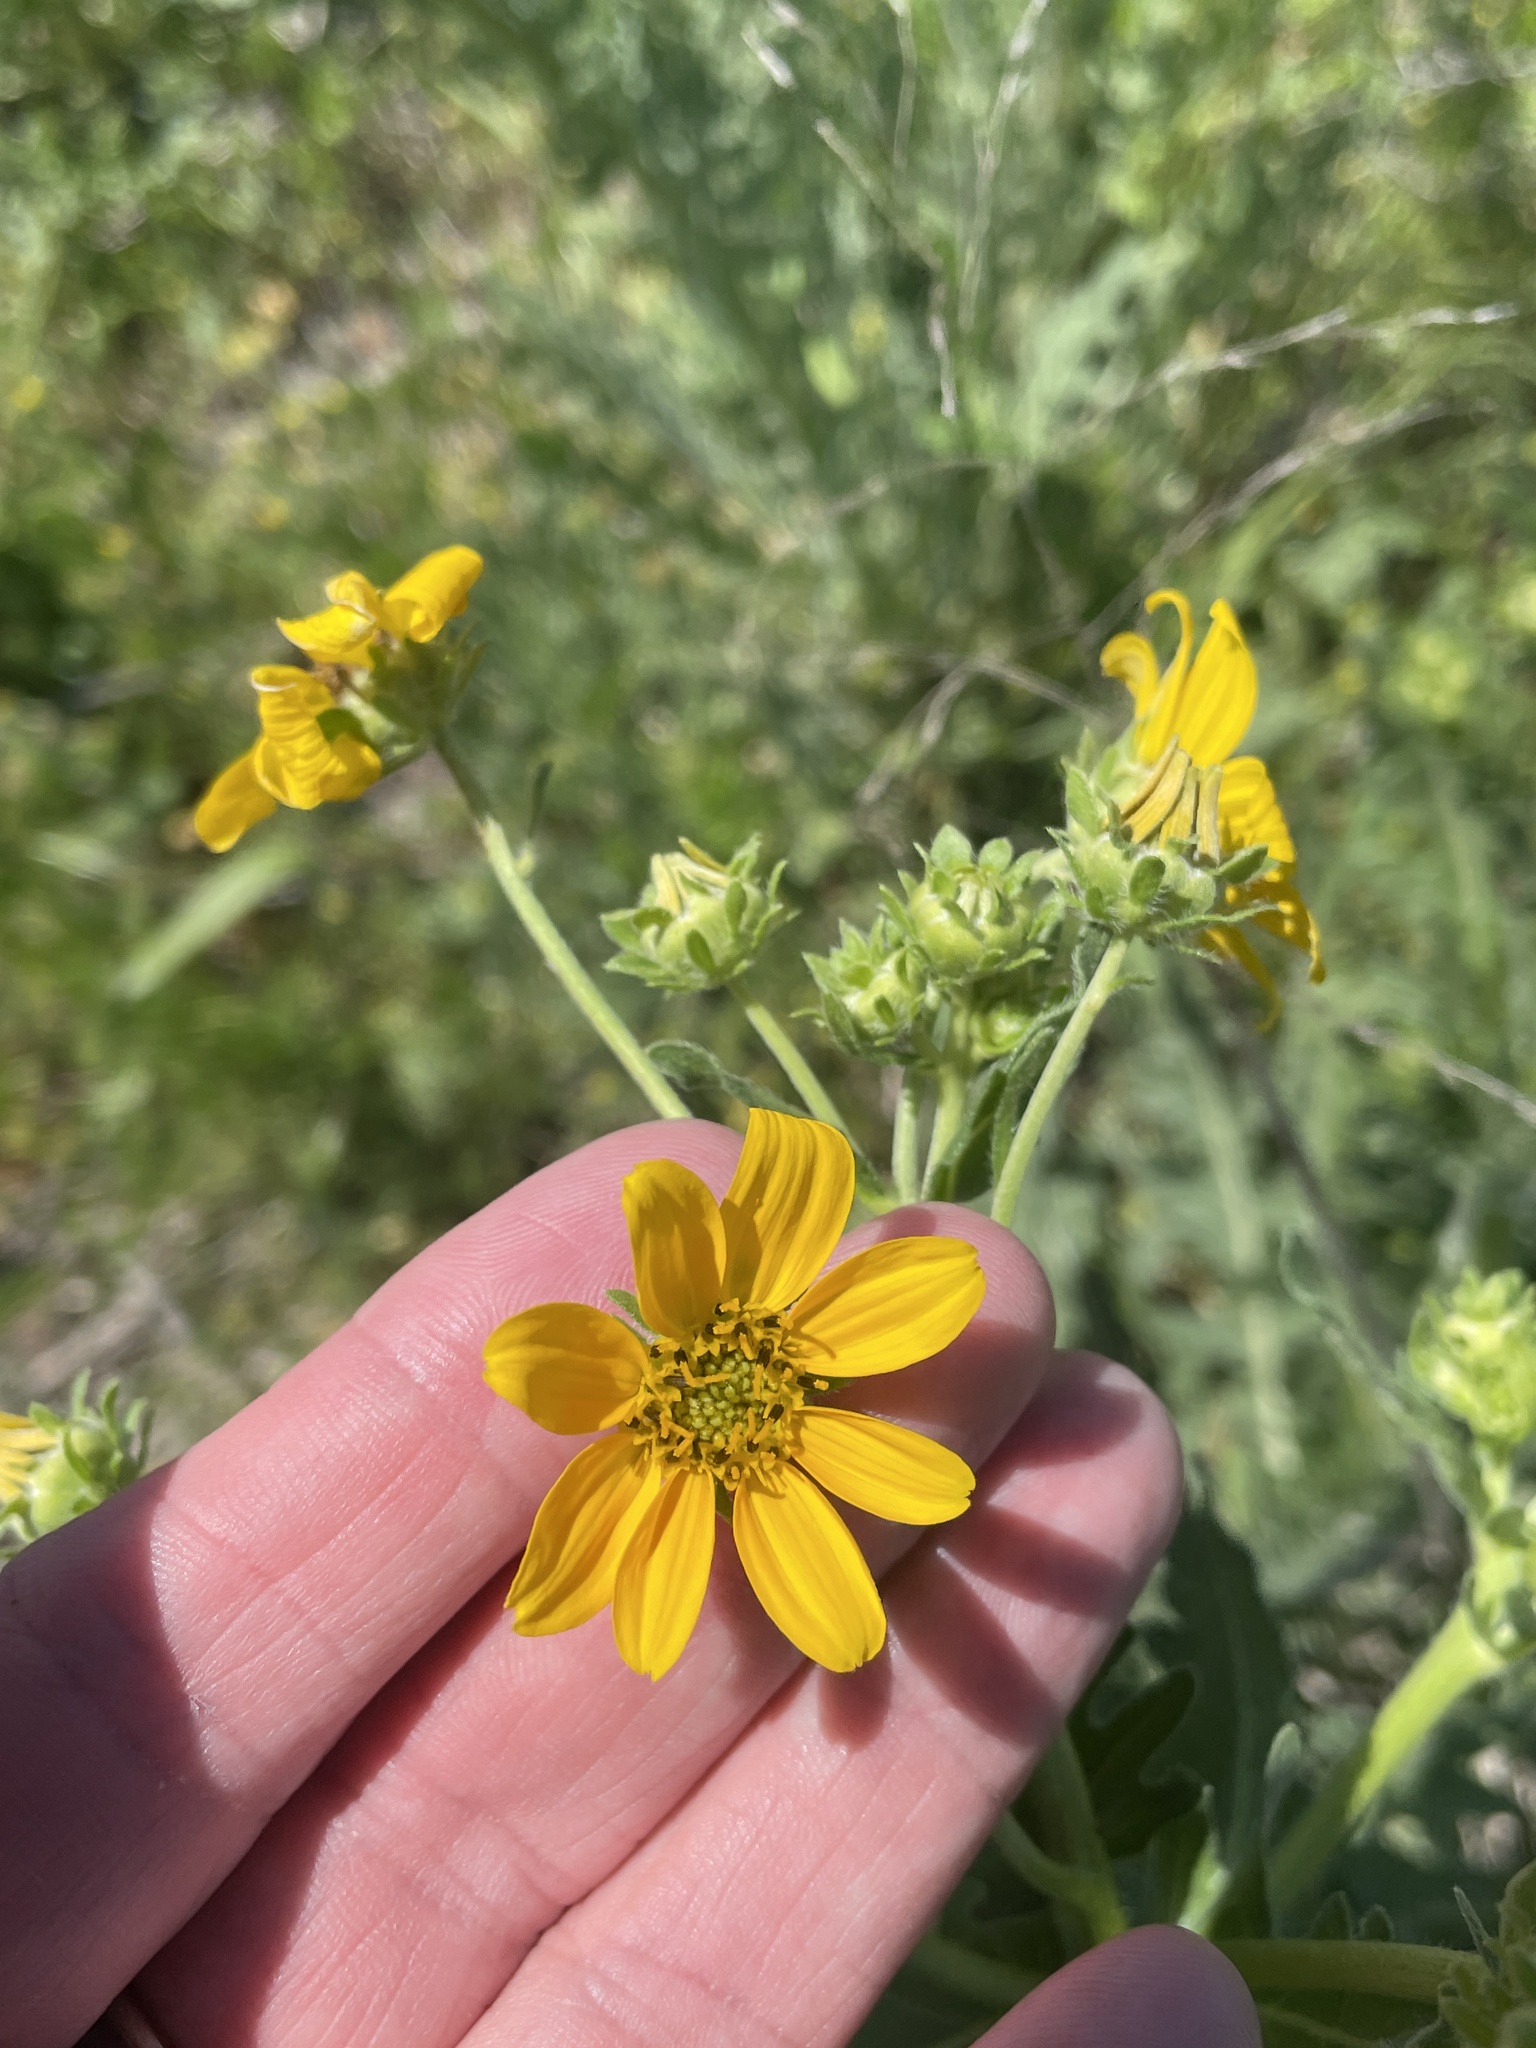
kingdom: Plantae
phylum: Tracheophyta
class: Magnoliopsida
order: Asterales
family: Asteraceae
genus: Engelmannia
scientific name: Engelmannia peristenia
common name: Engelmann's daisy
